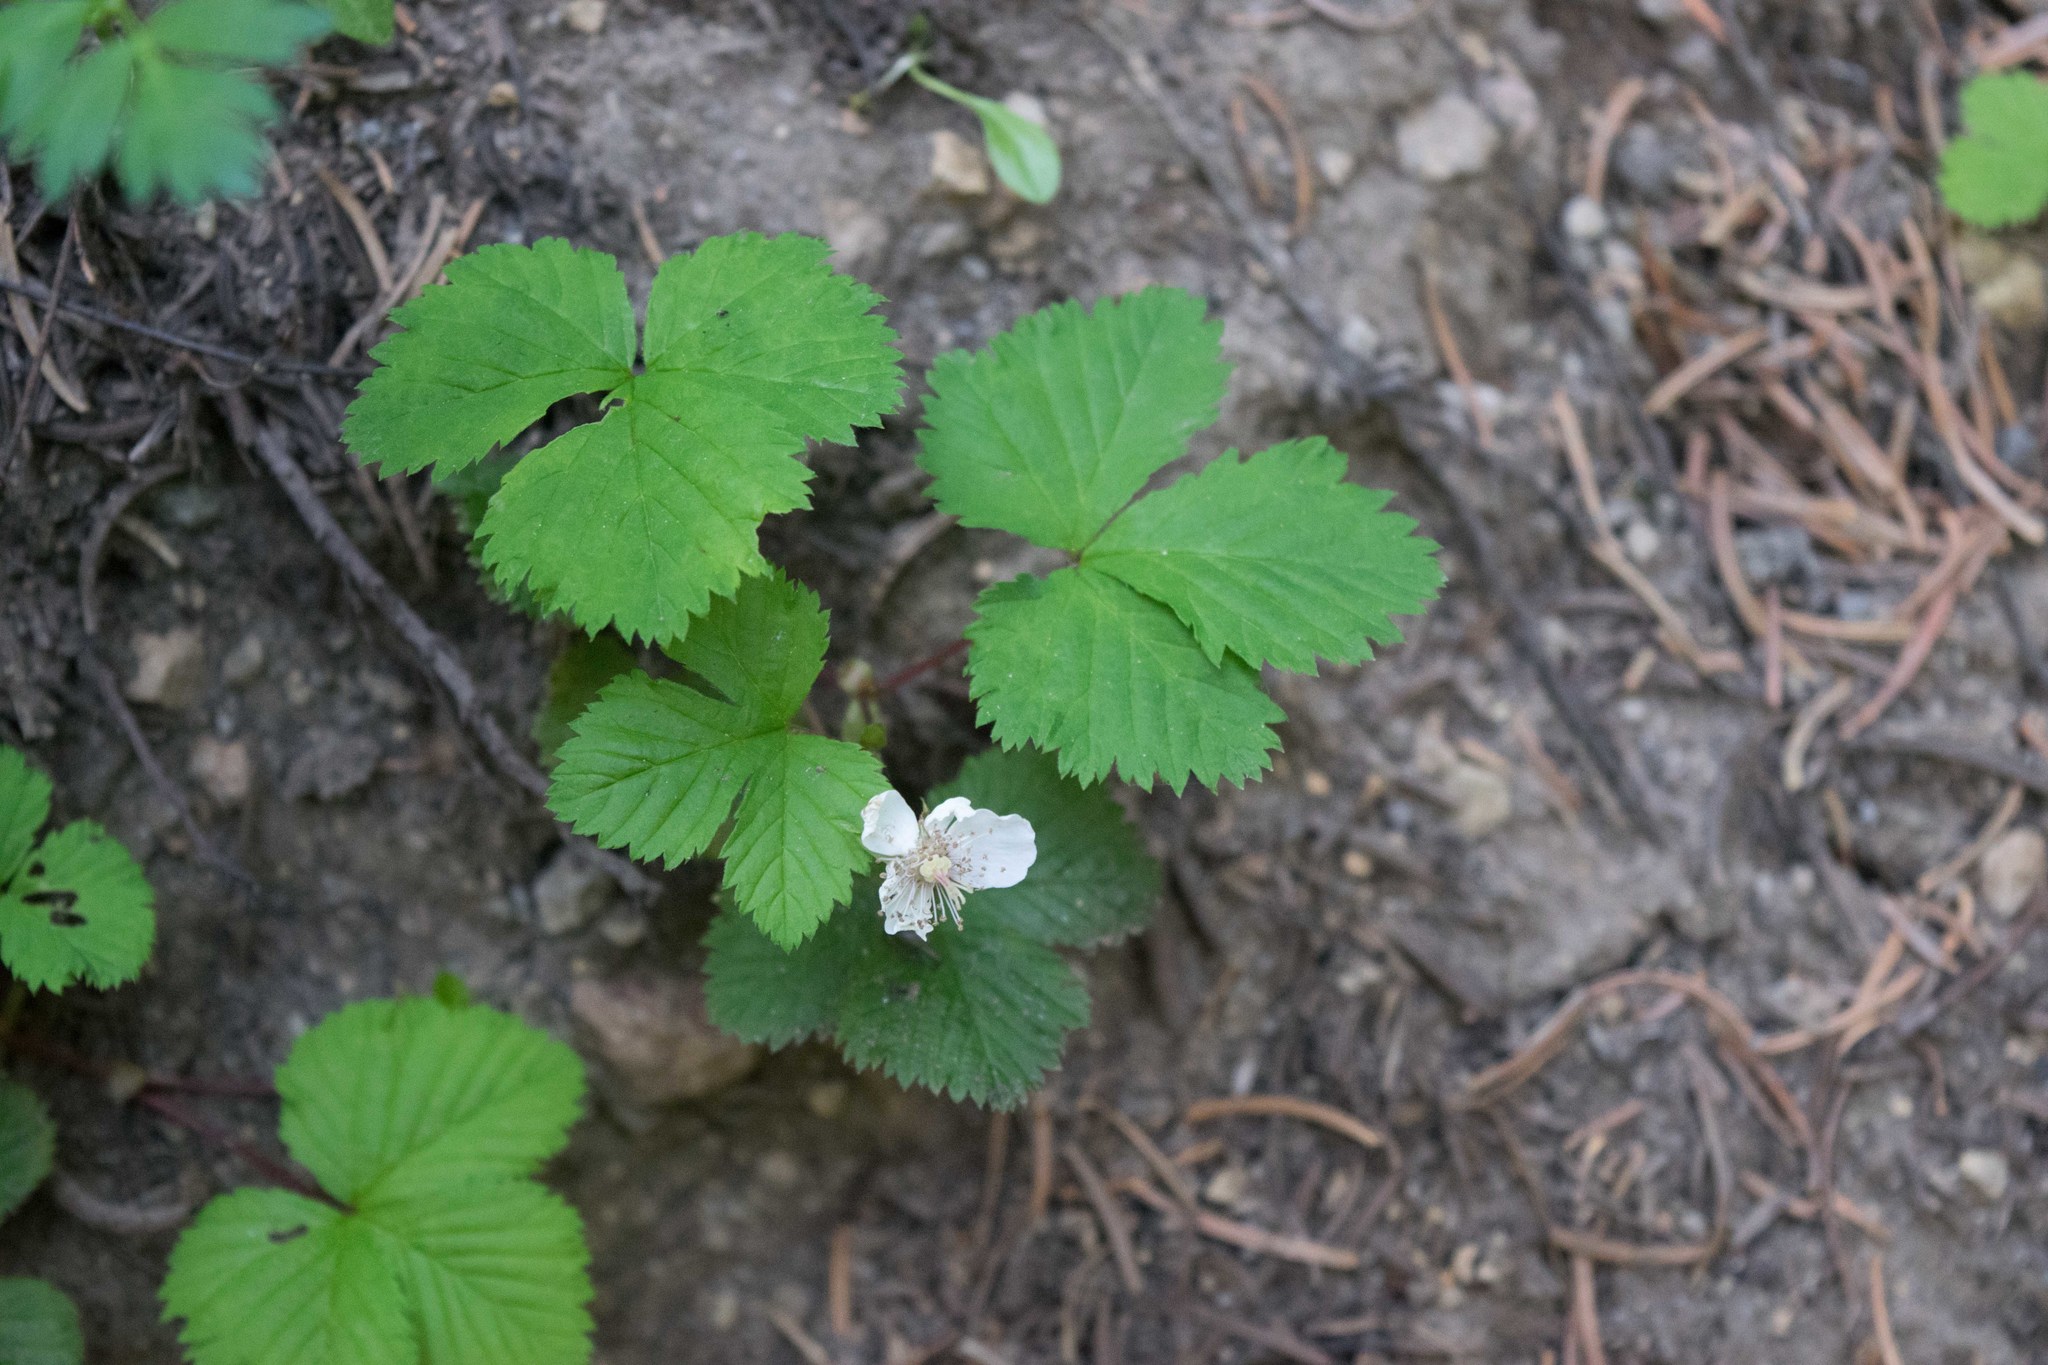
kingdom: Plantae
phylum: Tracheophyta
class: Magnoliopsida
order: Rosales
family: Rosaceae
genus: Rubus
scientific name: Rubus lasiococcus
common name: Dwarf bramble
